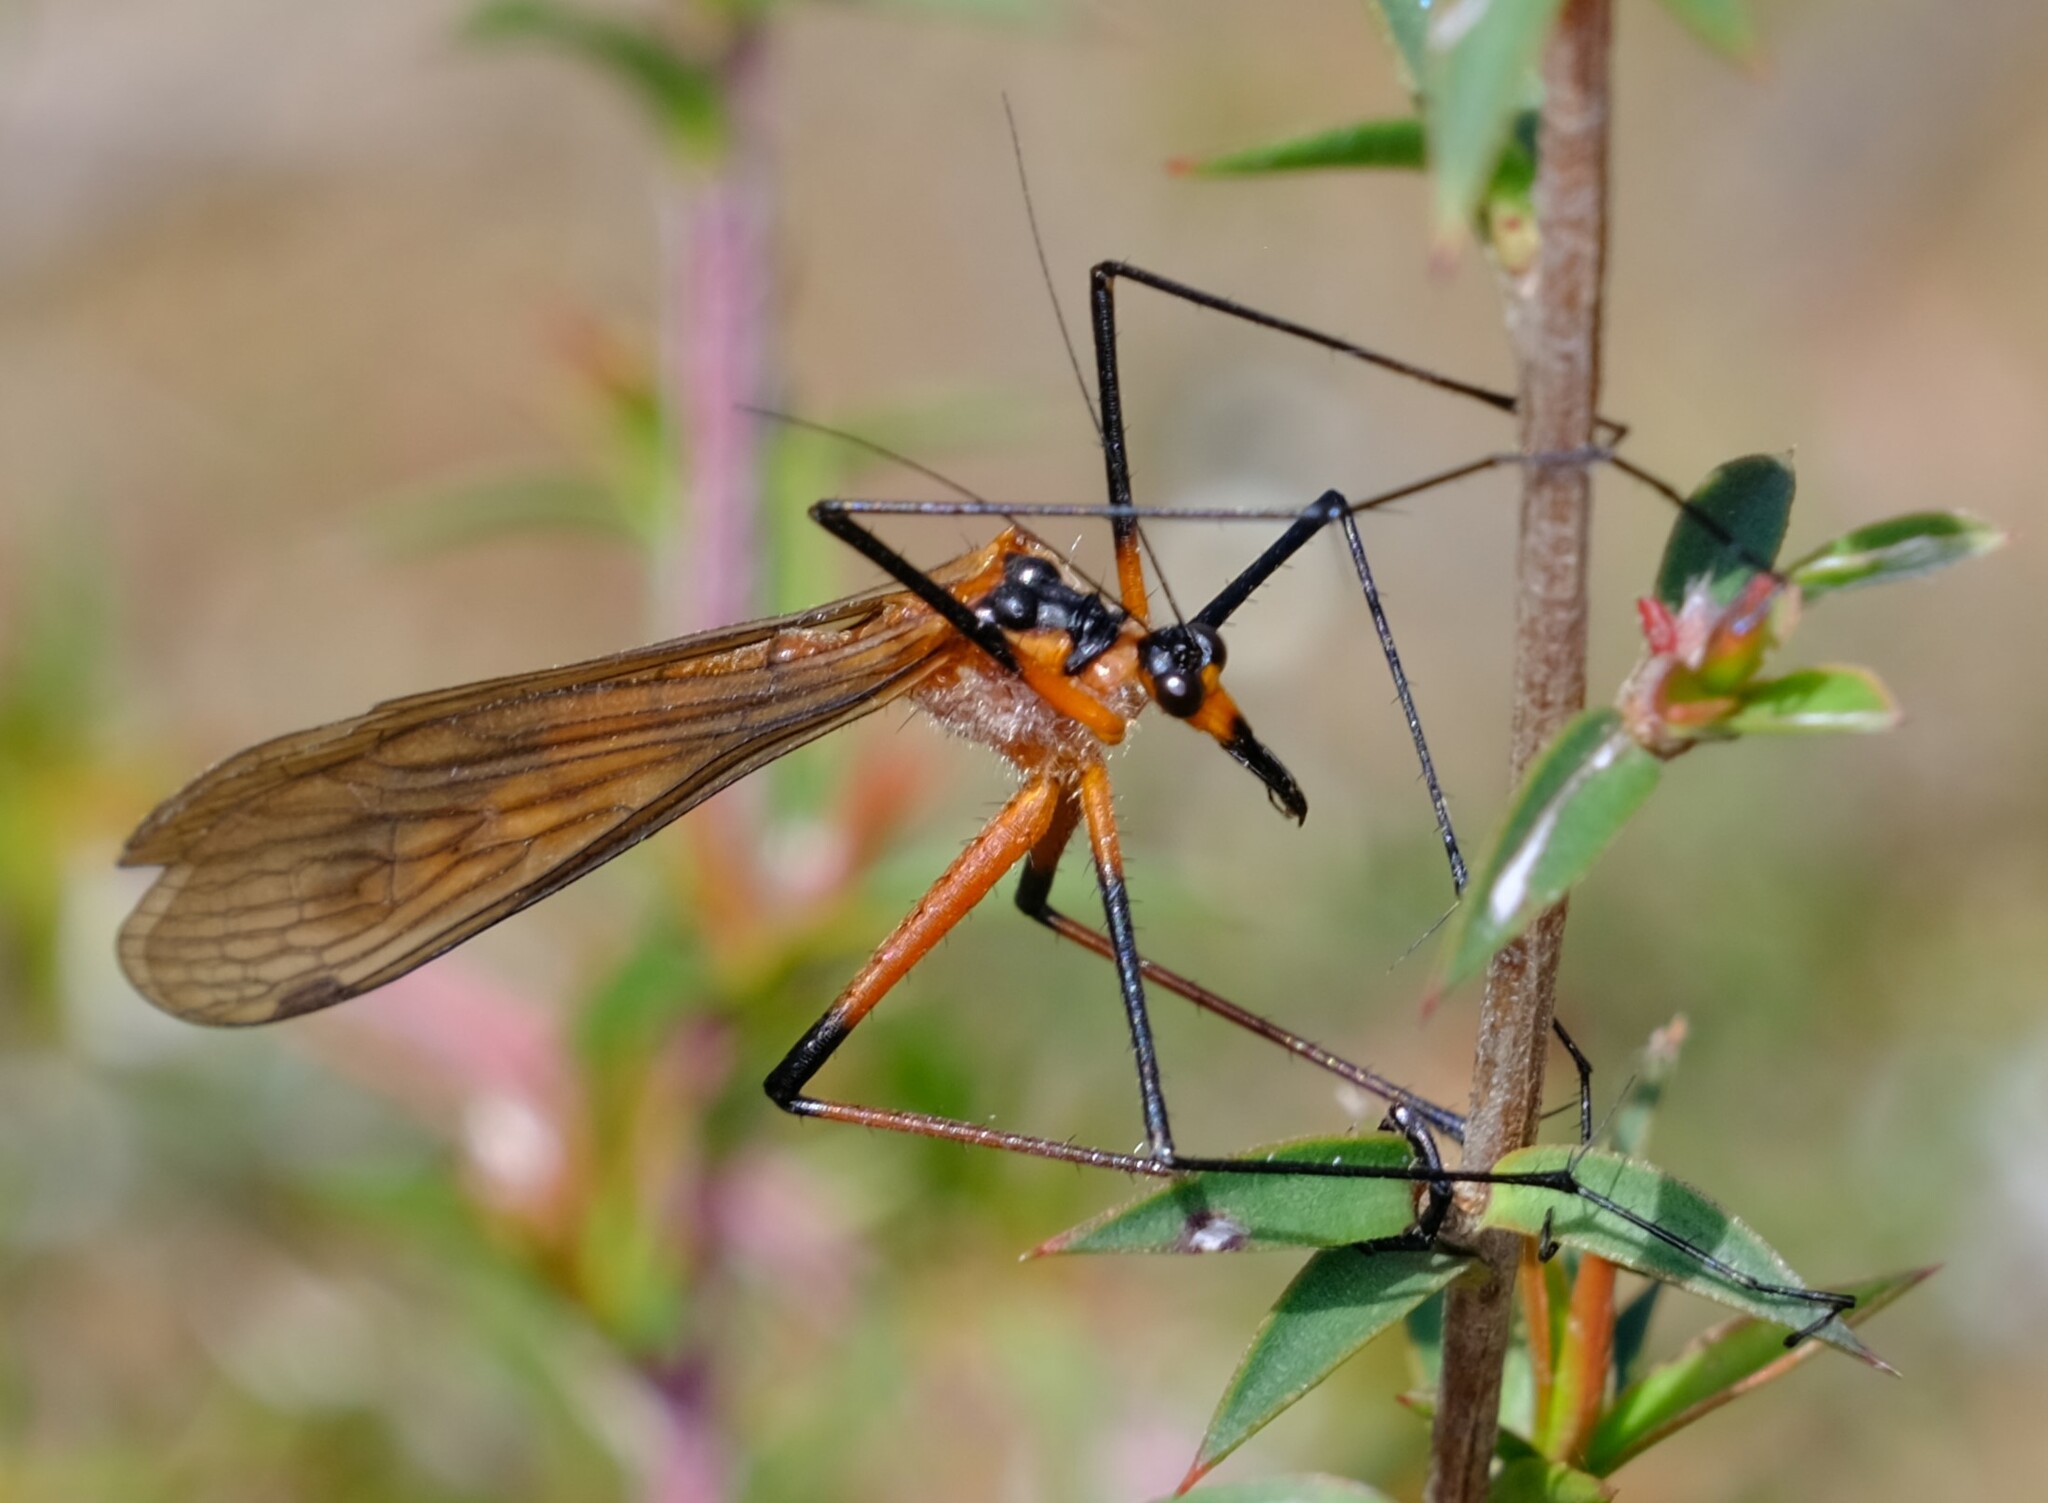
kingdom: Animalia
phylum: Arthropoda
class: Insecta
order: Mecoptera
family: Bittacidae
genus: Harpobittacus
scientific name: Harpobittacus australis
